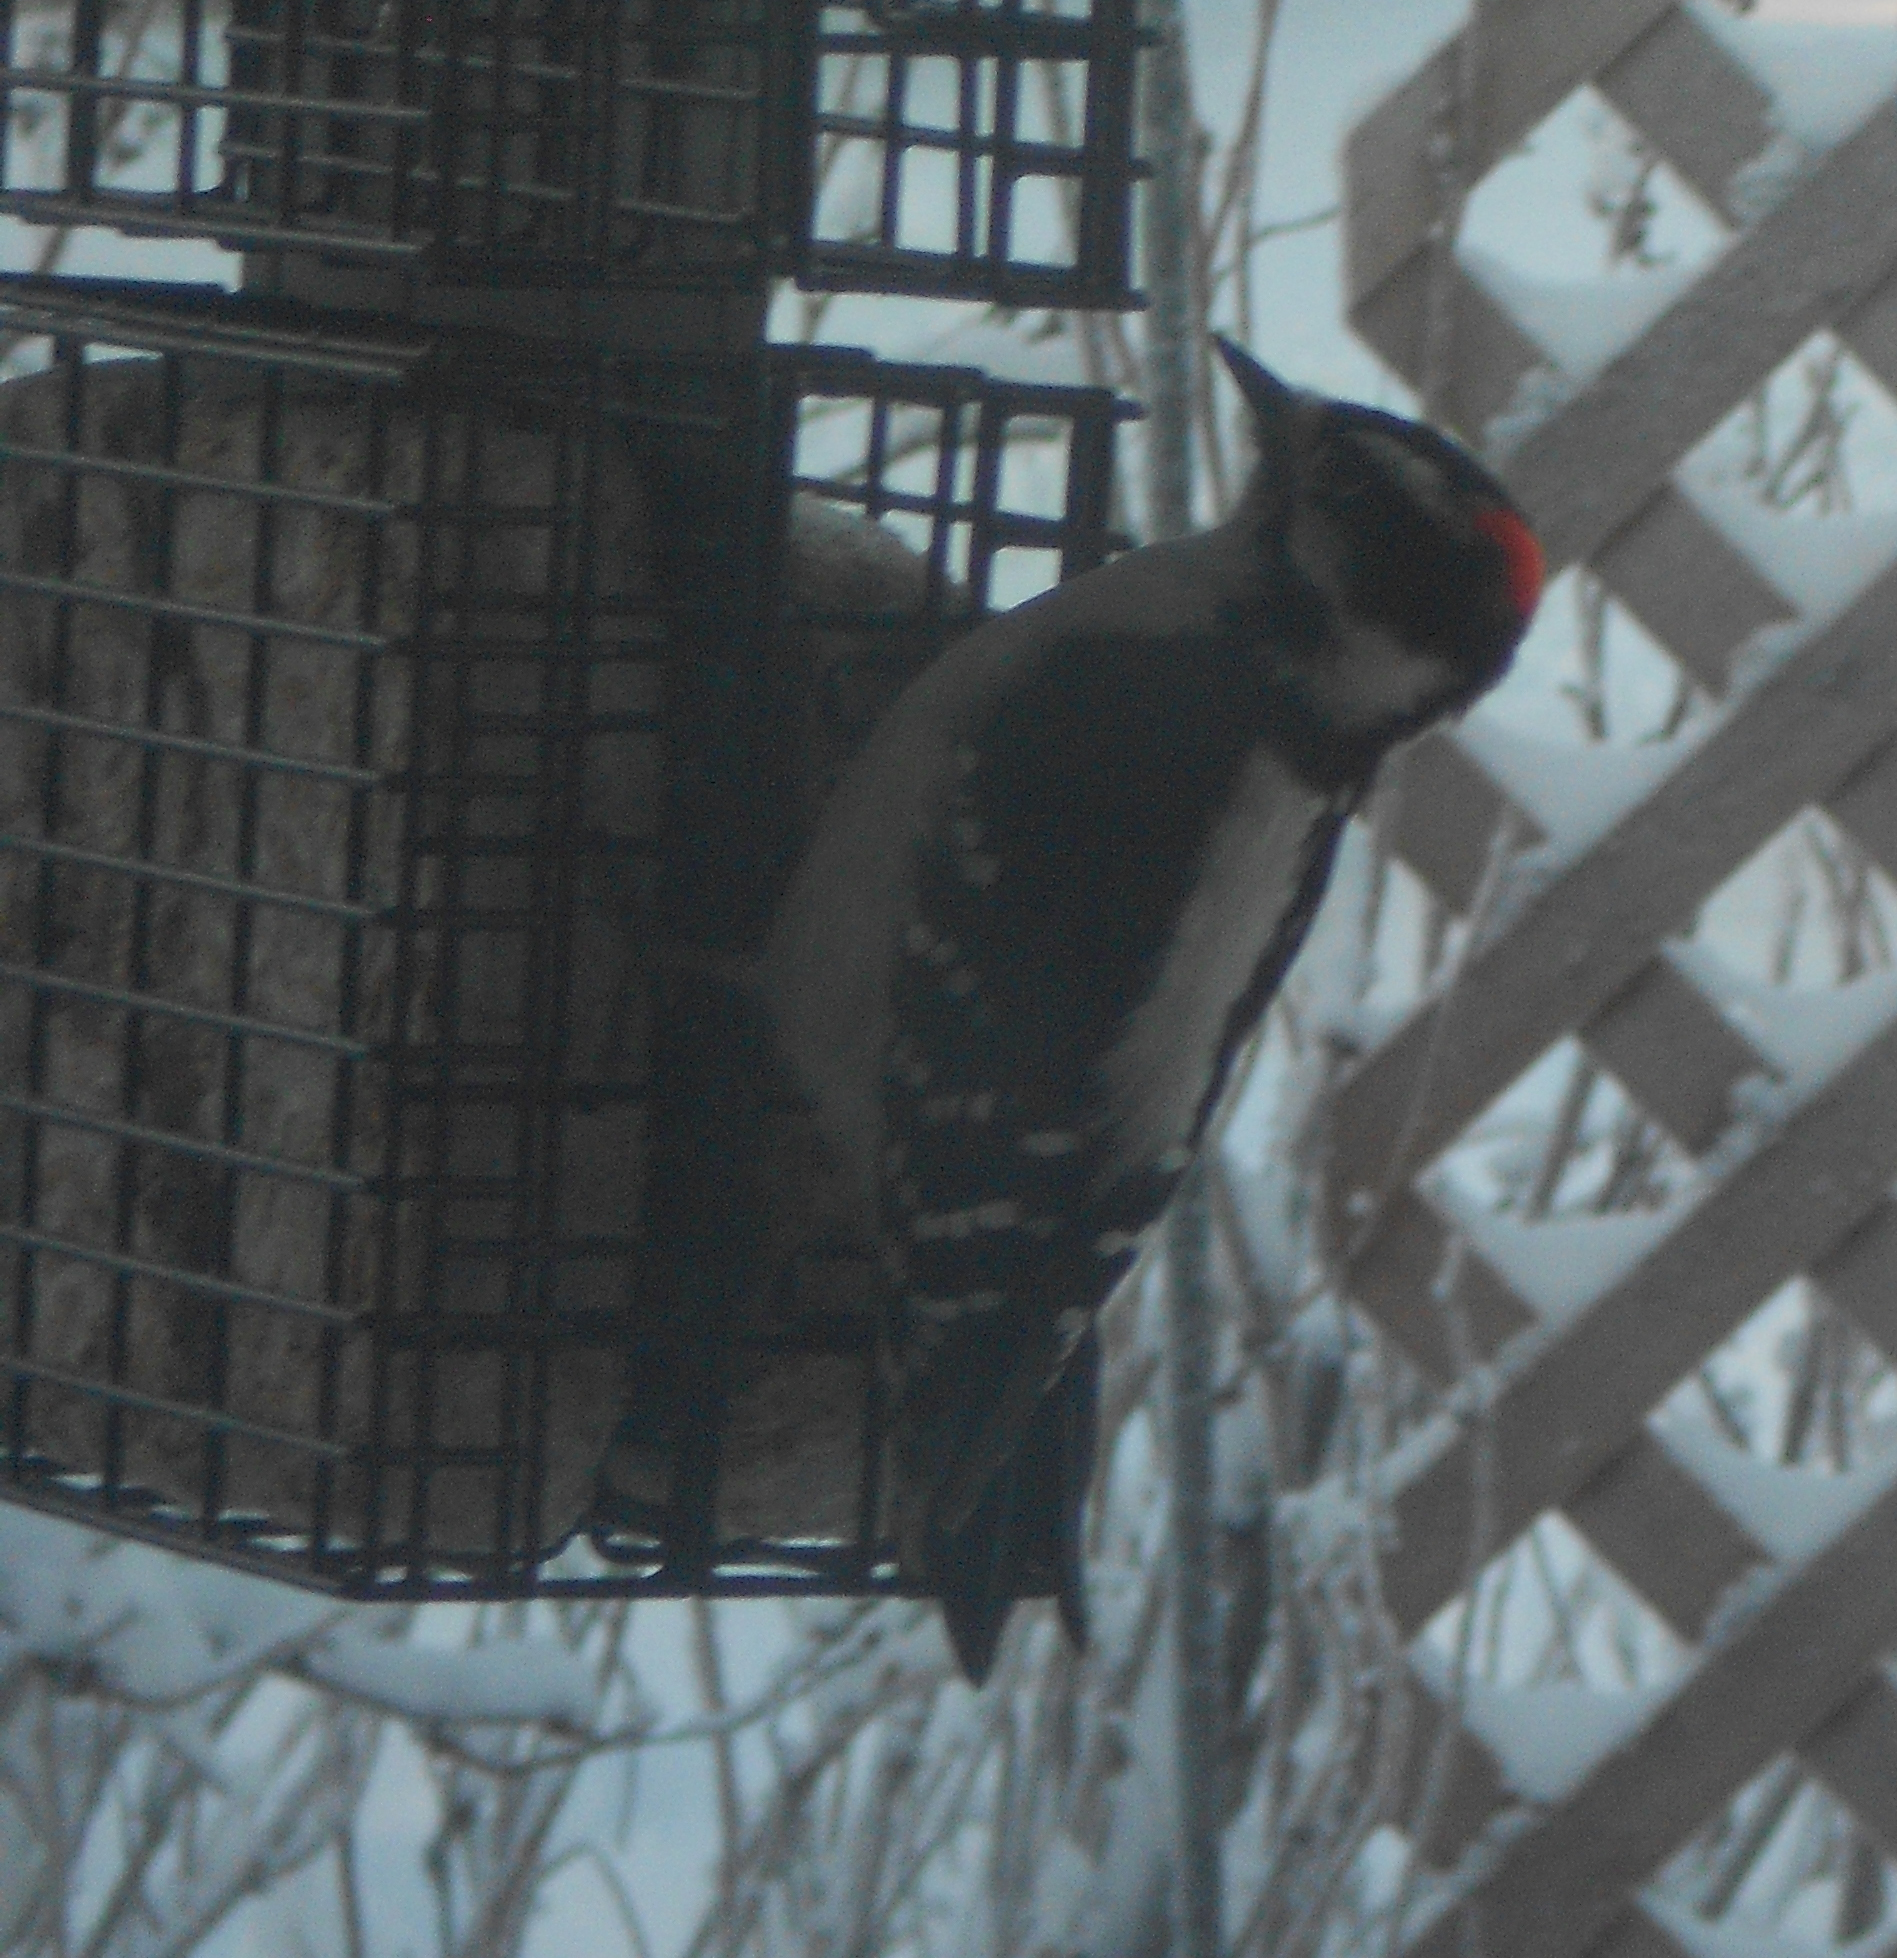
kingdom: Animalia
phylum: Chordata
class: Aves
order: Piciformes
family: Picidae
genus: Dryobates
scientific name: Dryobates pubescens
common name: Downy woodpecker
